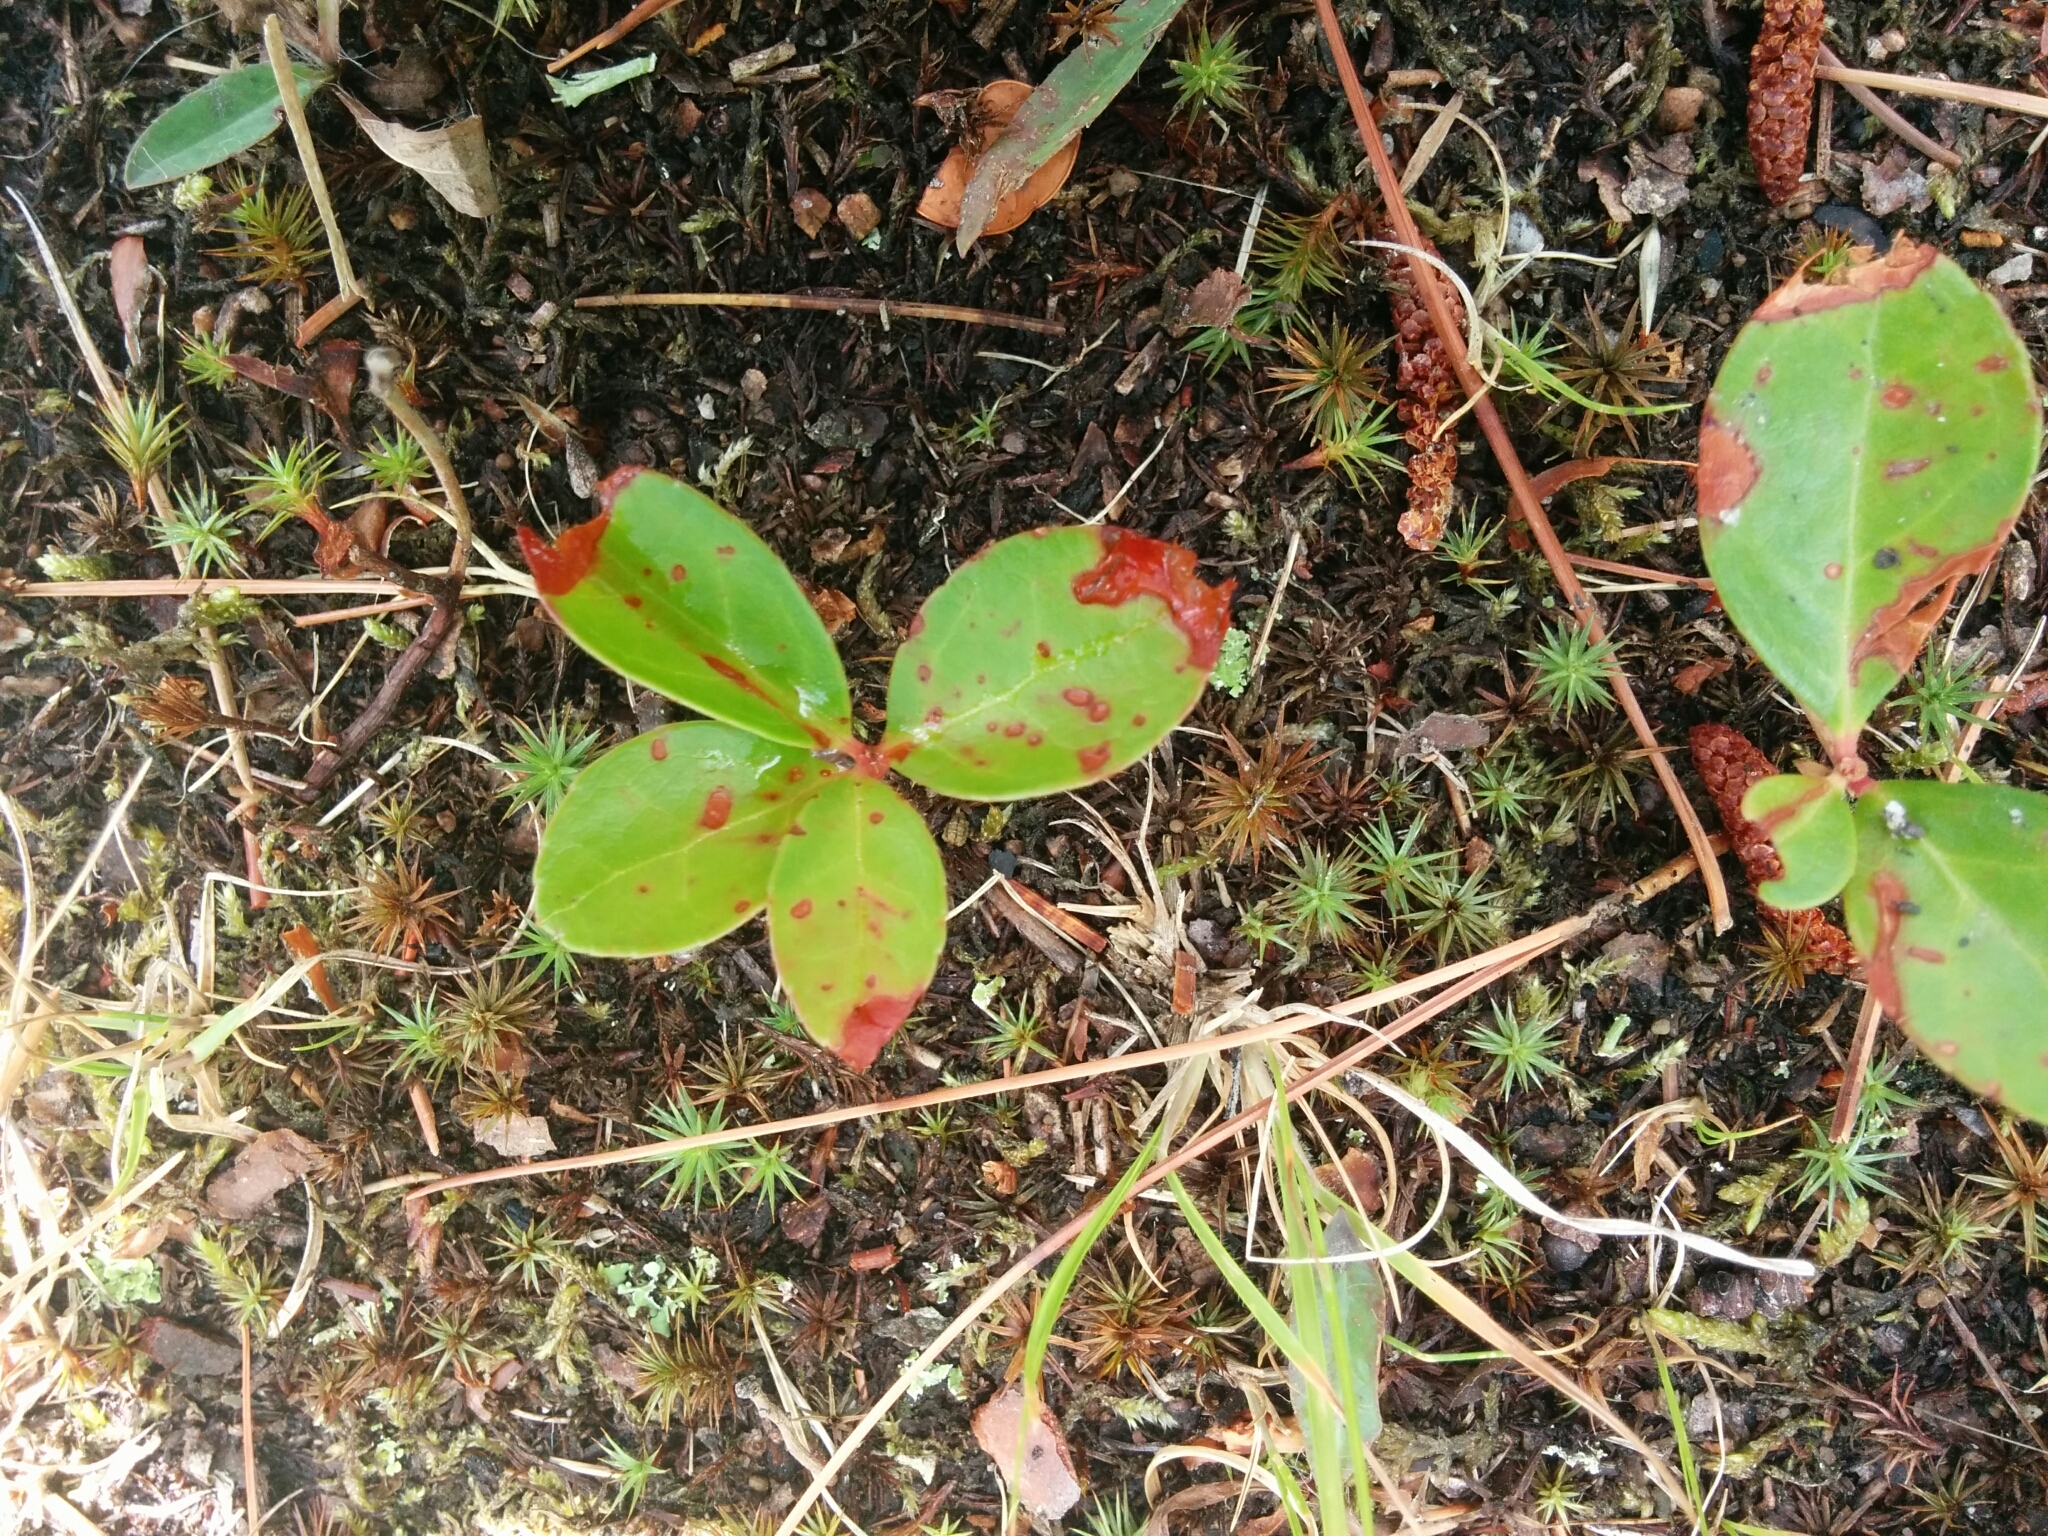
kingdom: Plantae
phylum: Tracheophyta
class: Magnoliopsida
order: Ericales
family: Ericaceae
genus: Gaultheria
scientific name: Gaultheria procumbens
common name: Checkerberry
